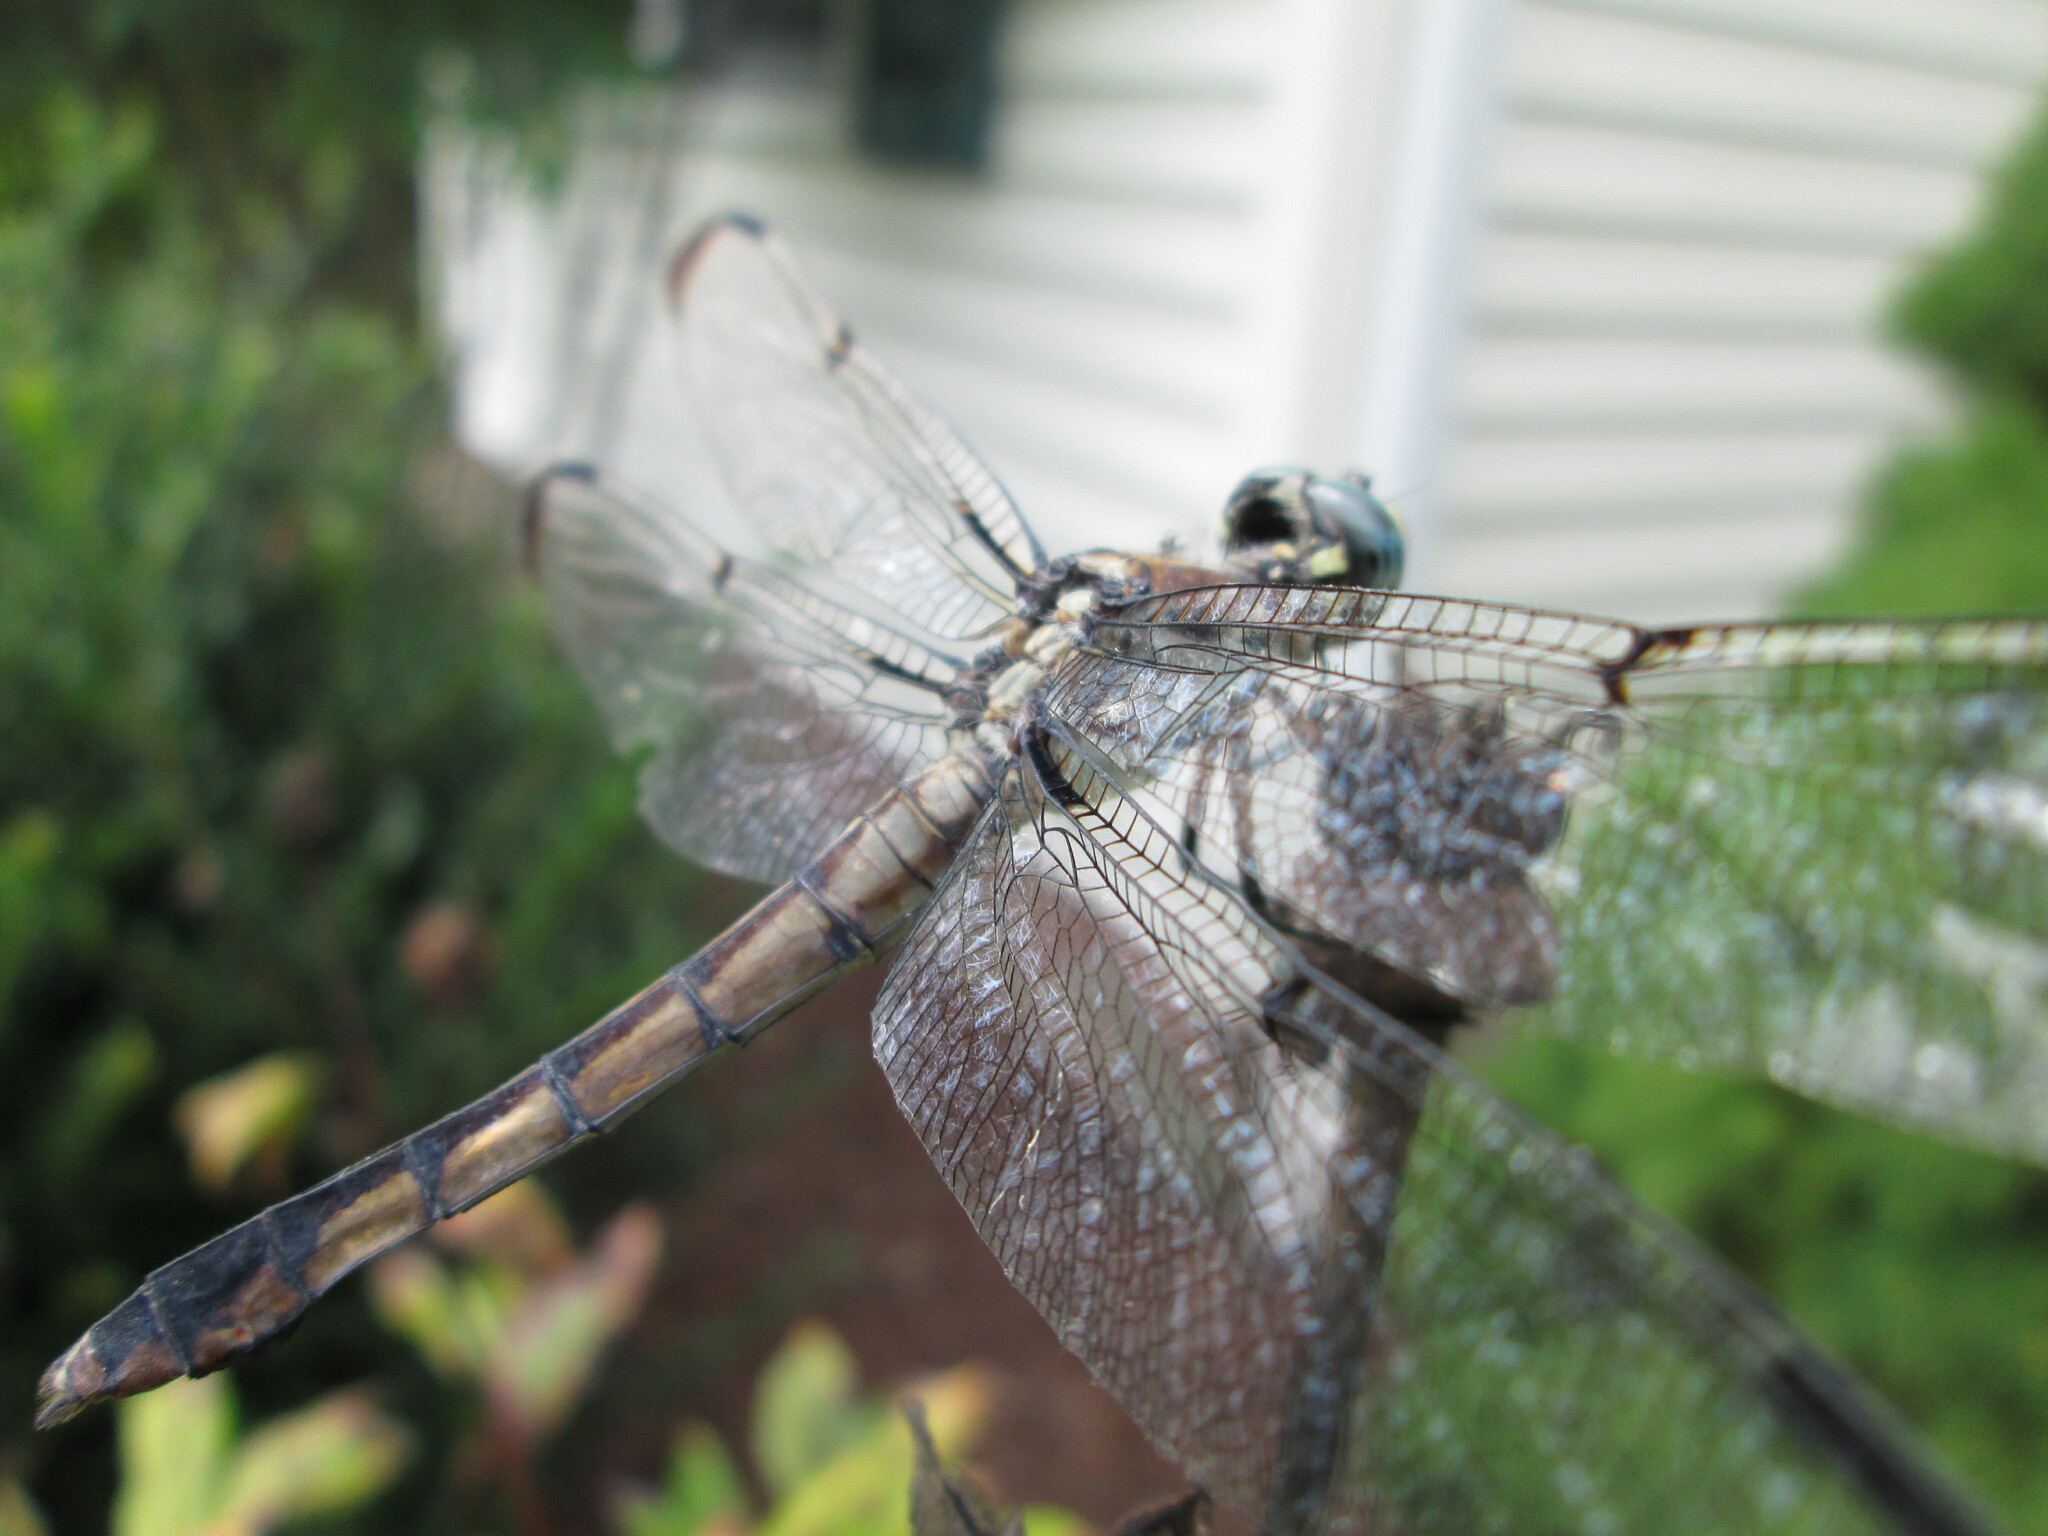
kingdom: Animalia
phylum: Arthropoda
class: Insecta
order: Odonata
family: Libellulidae
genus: Libellula
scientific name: Libellula vibrans
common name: Great blue skimmer
